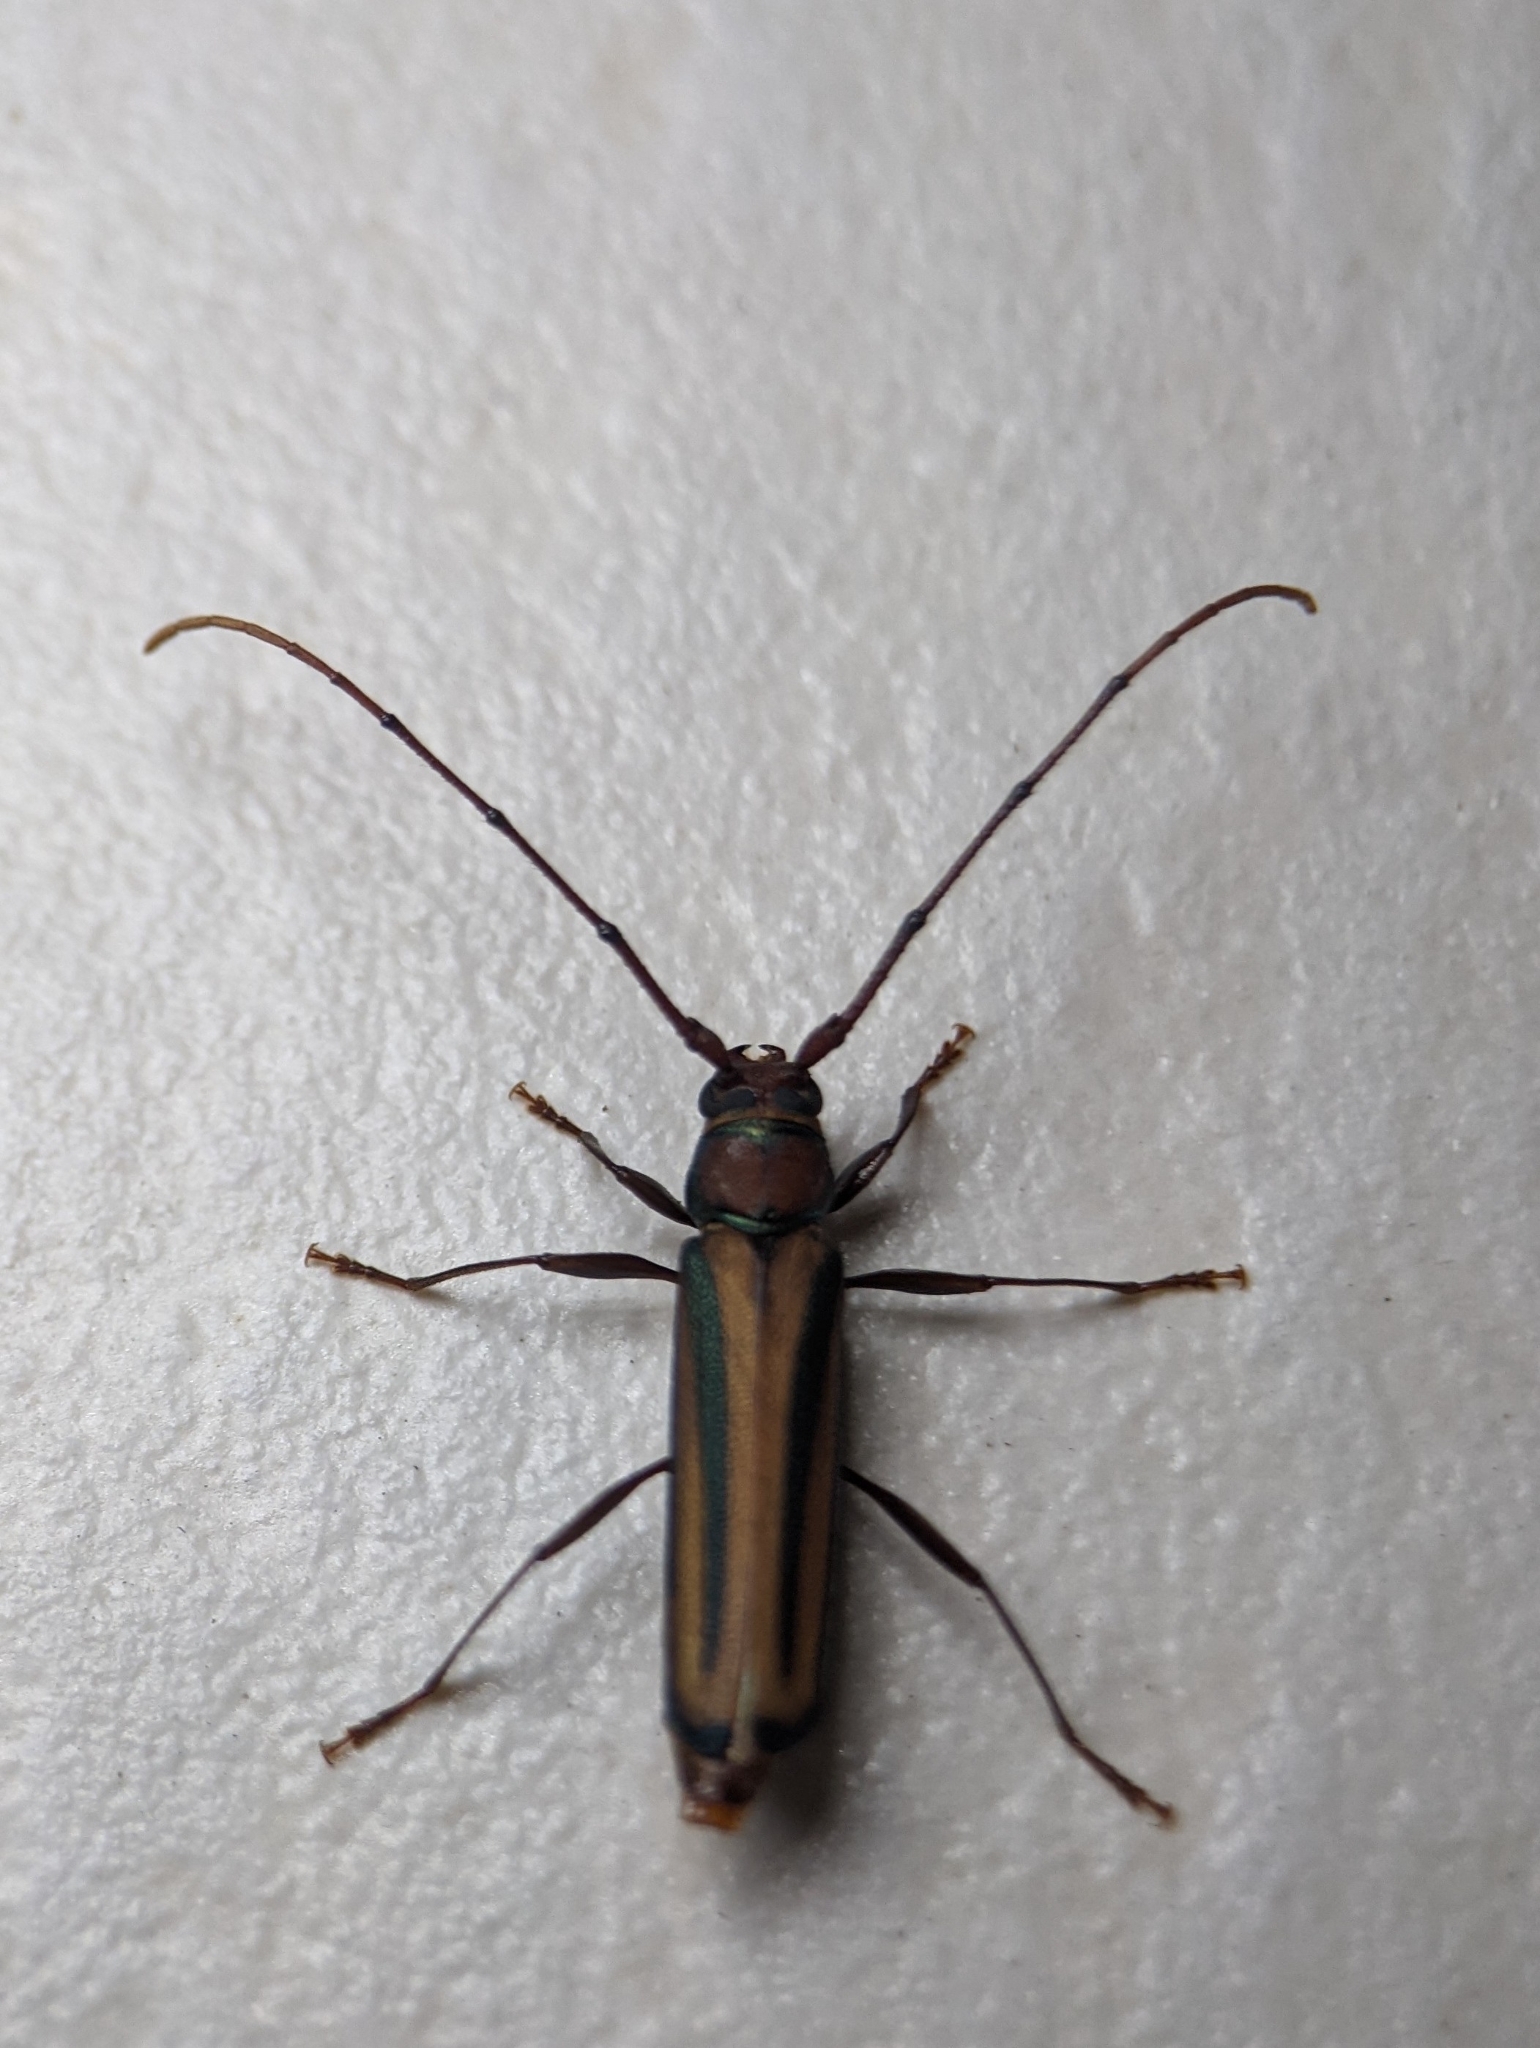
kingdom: Animalia
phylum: Arthropoda
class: Insecta
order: Coleoptera
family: Cerambycidae
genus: Xystrocera
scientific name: Xystrocera globosa
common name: Peach-tree longhorn
